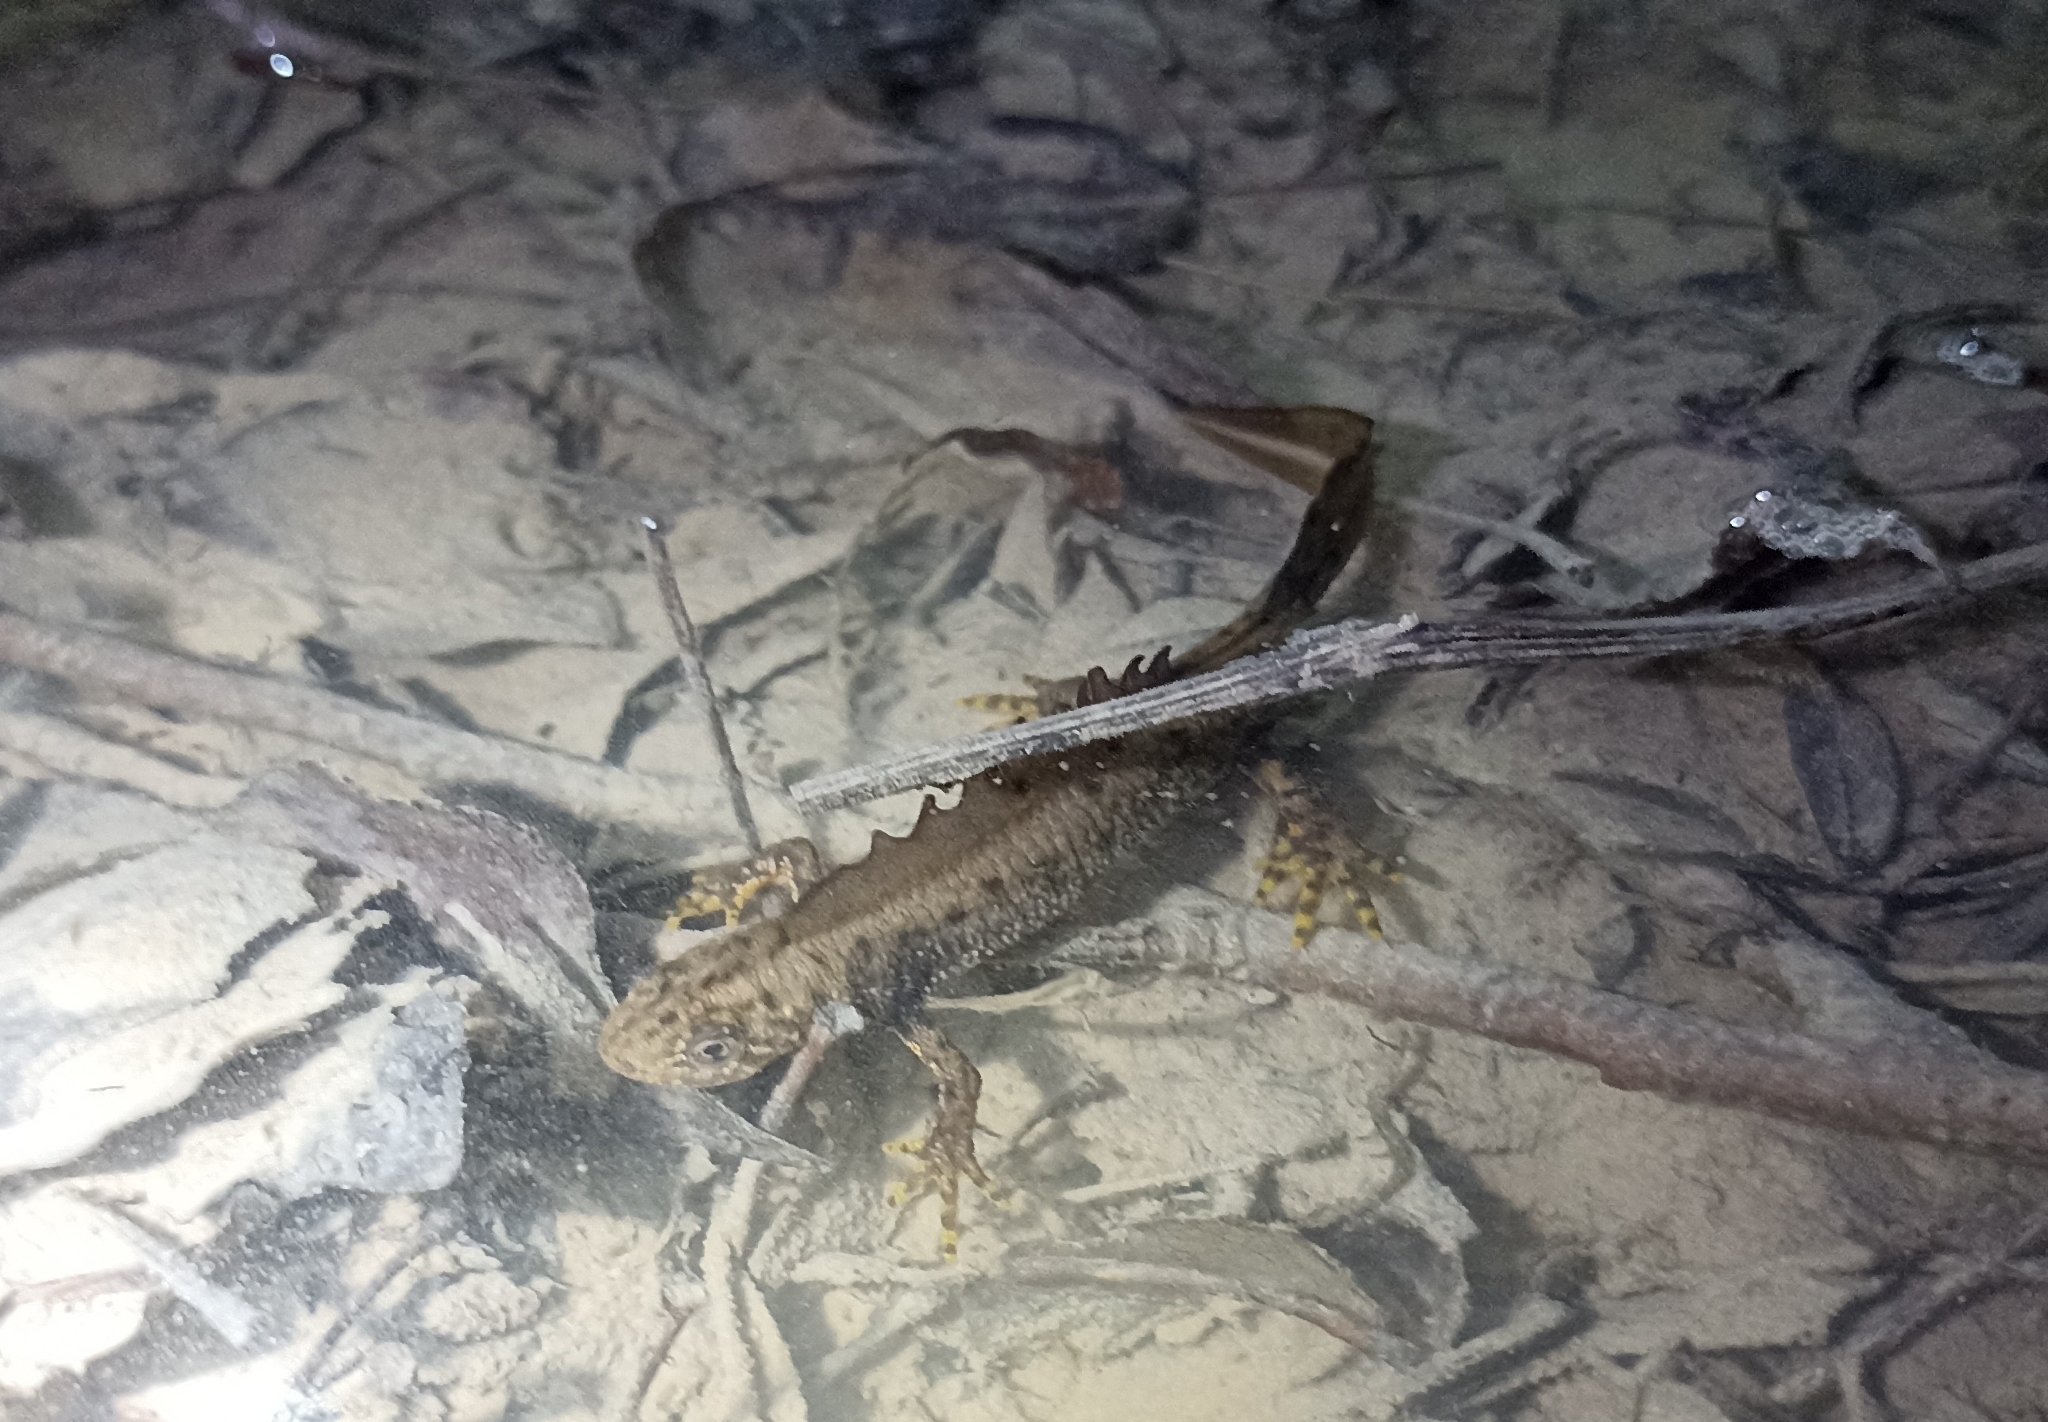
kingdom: Animalia
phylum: Chordata
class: Amphibia
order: Caudata
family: Salamandridae
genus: Triturus
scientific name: Triturus cristatus
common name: Crested newt
